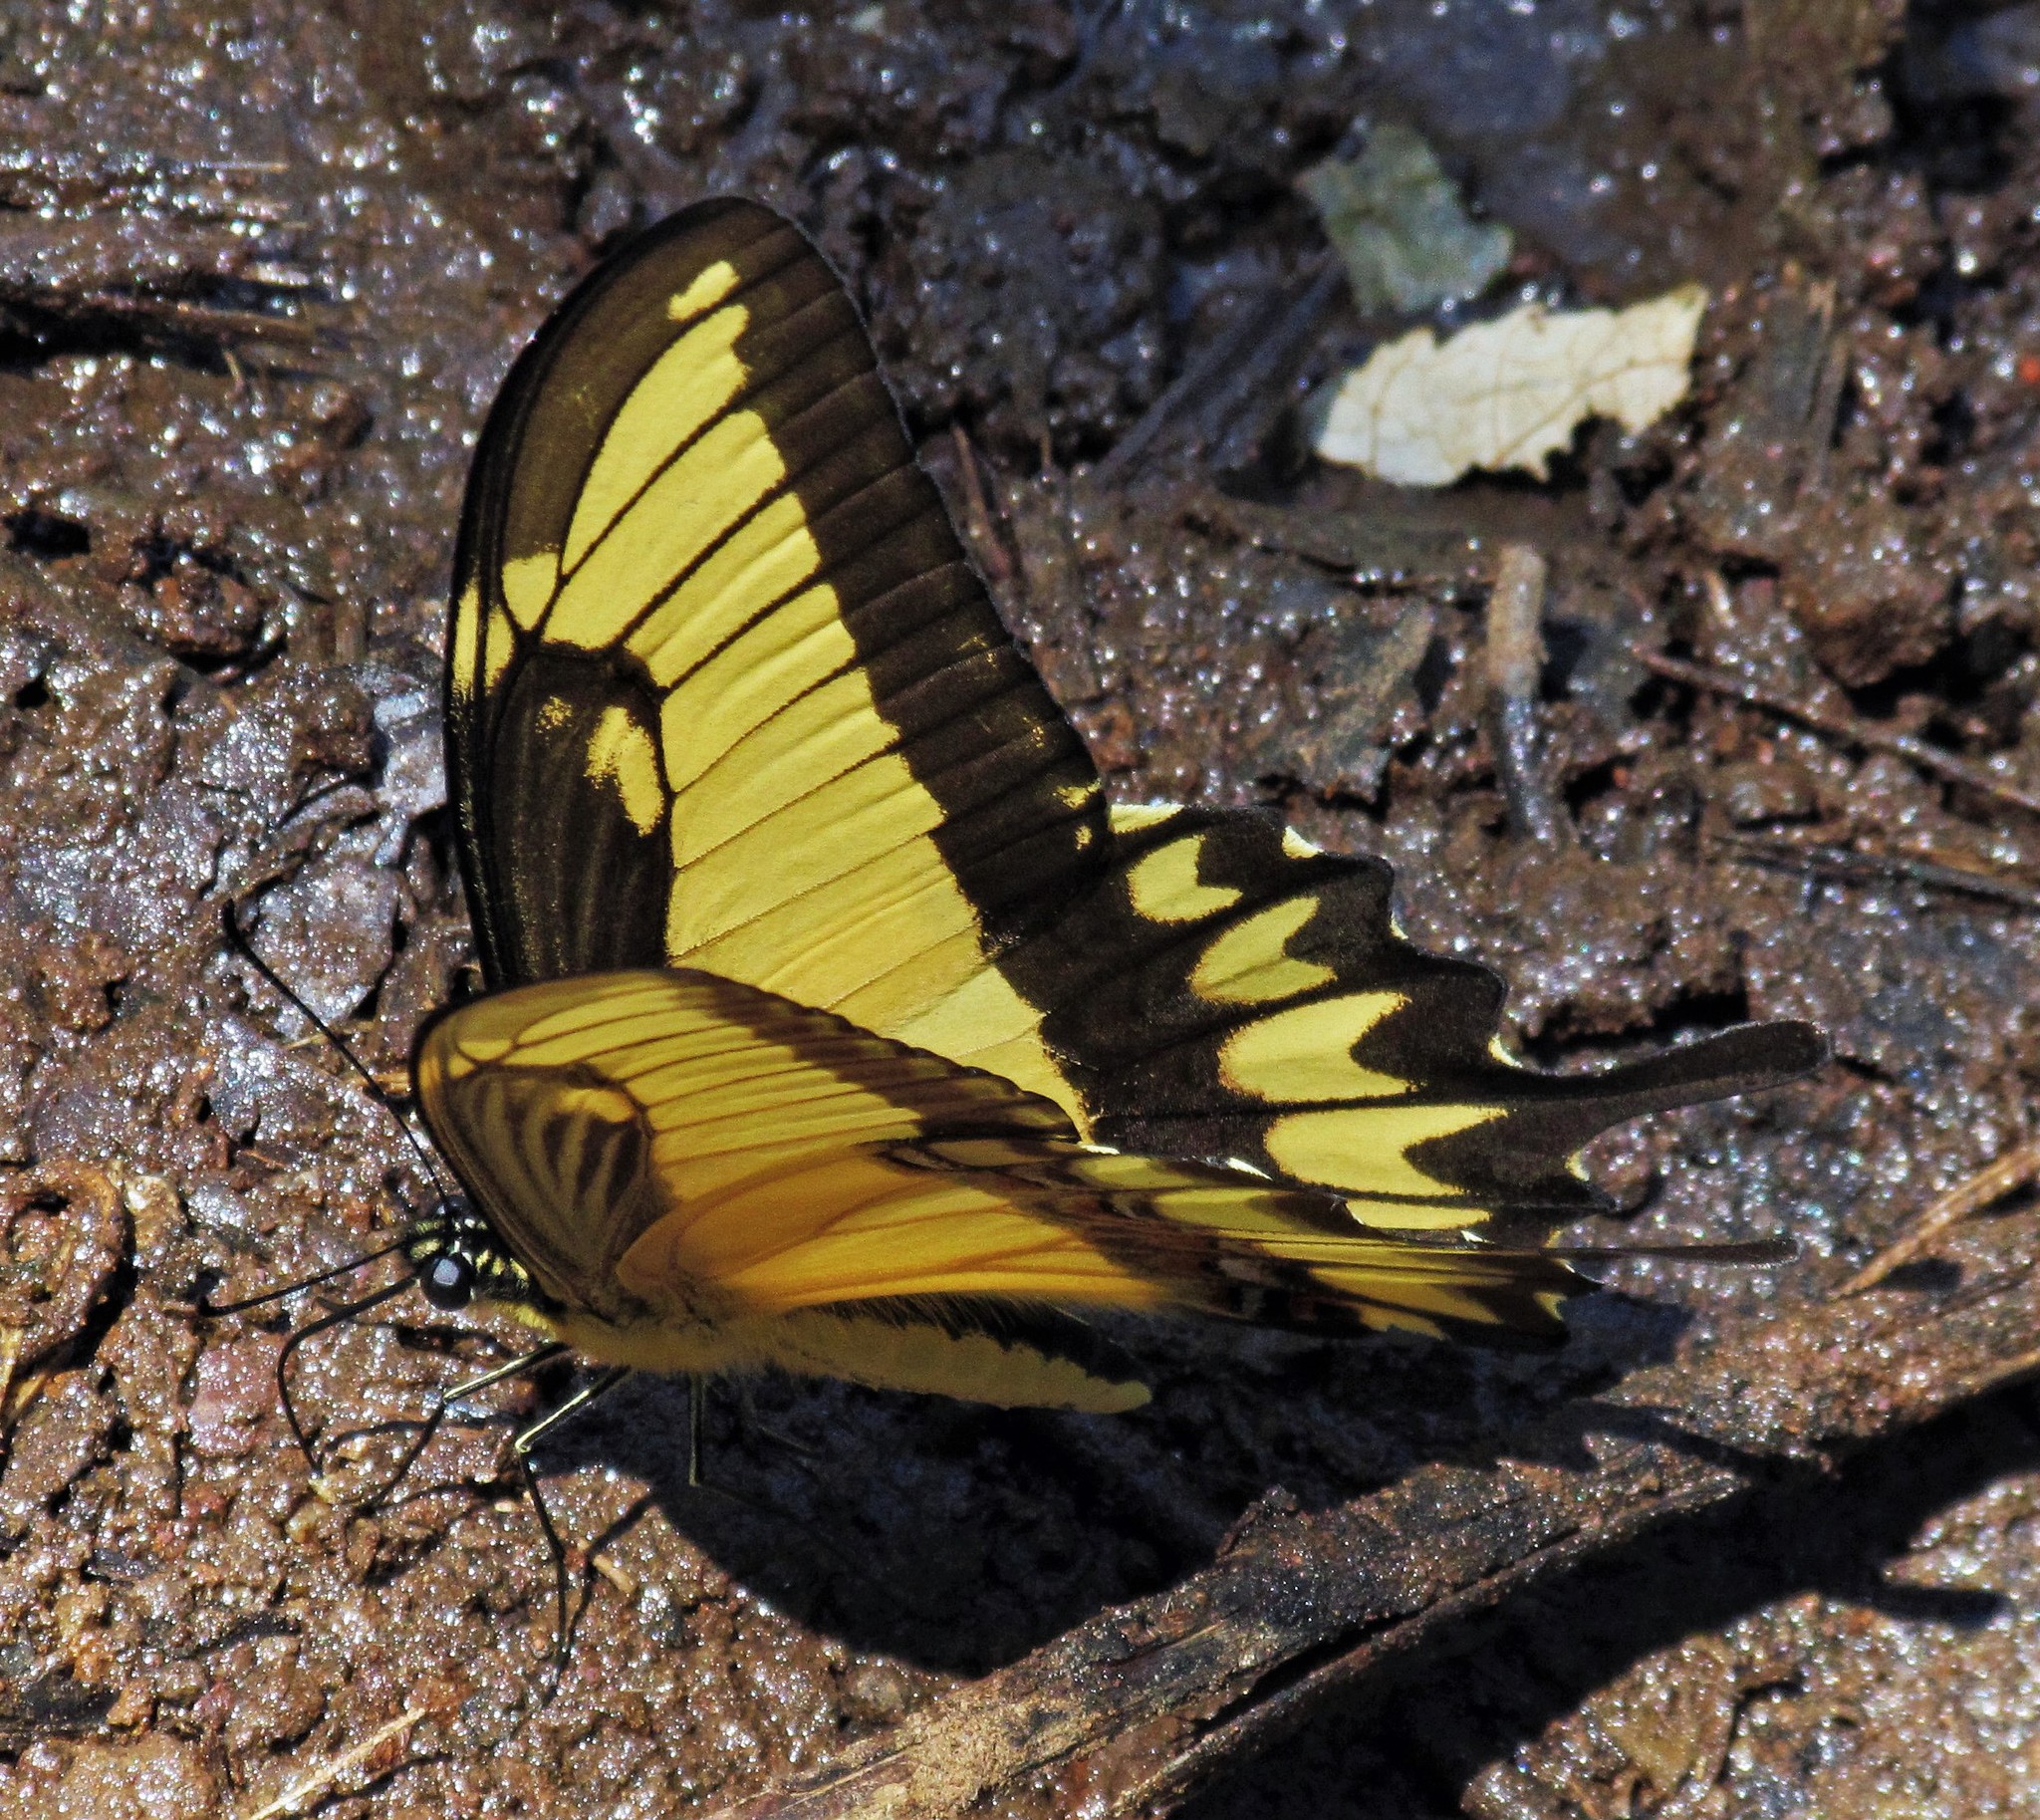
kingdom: Animalia
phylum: Arthropoda
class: Insecta
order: Lepidoptera
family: Papilionidae
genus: Papilio
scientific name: Papilio astyalus
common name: Astyalus swallowtail
